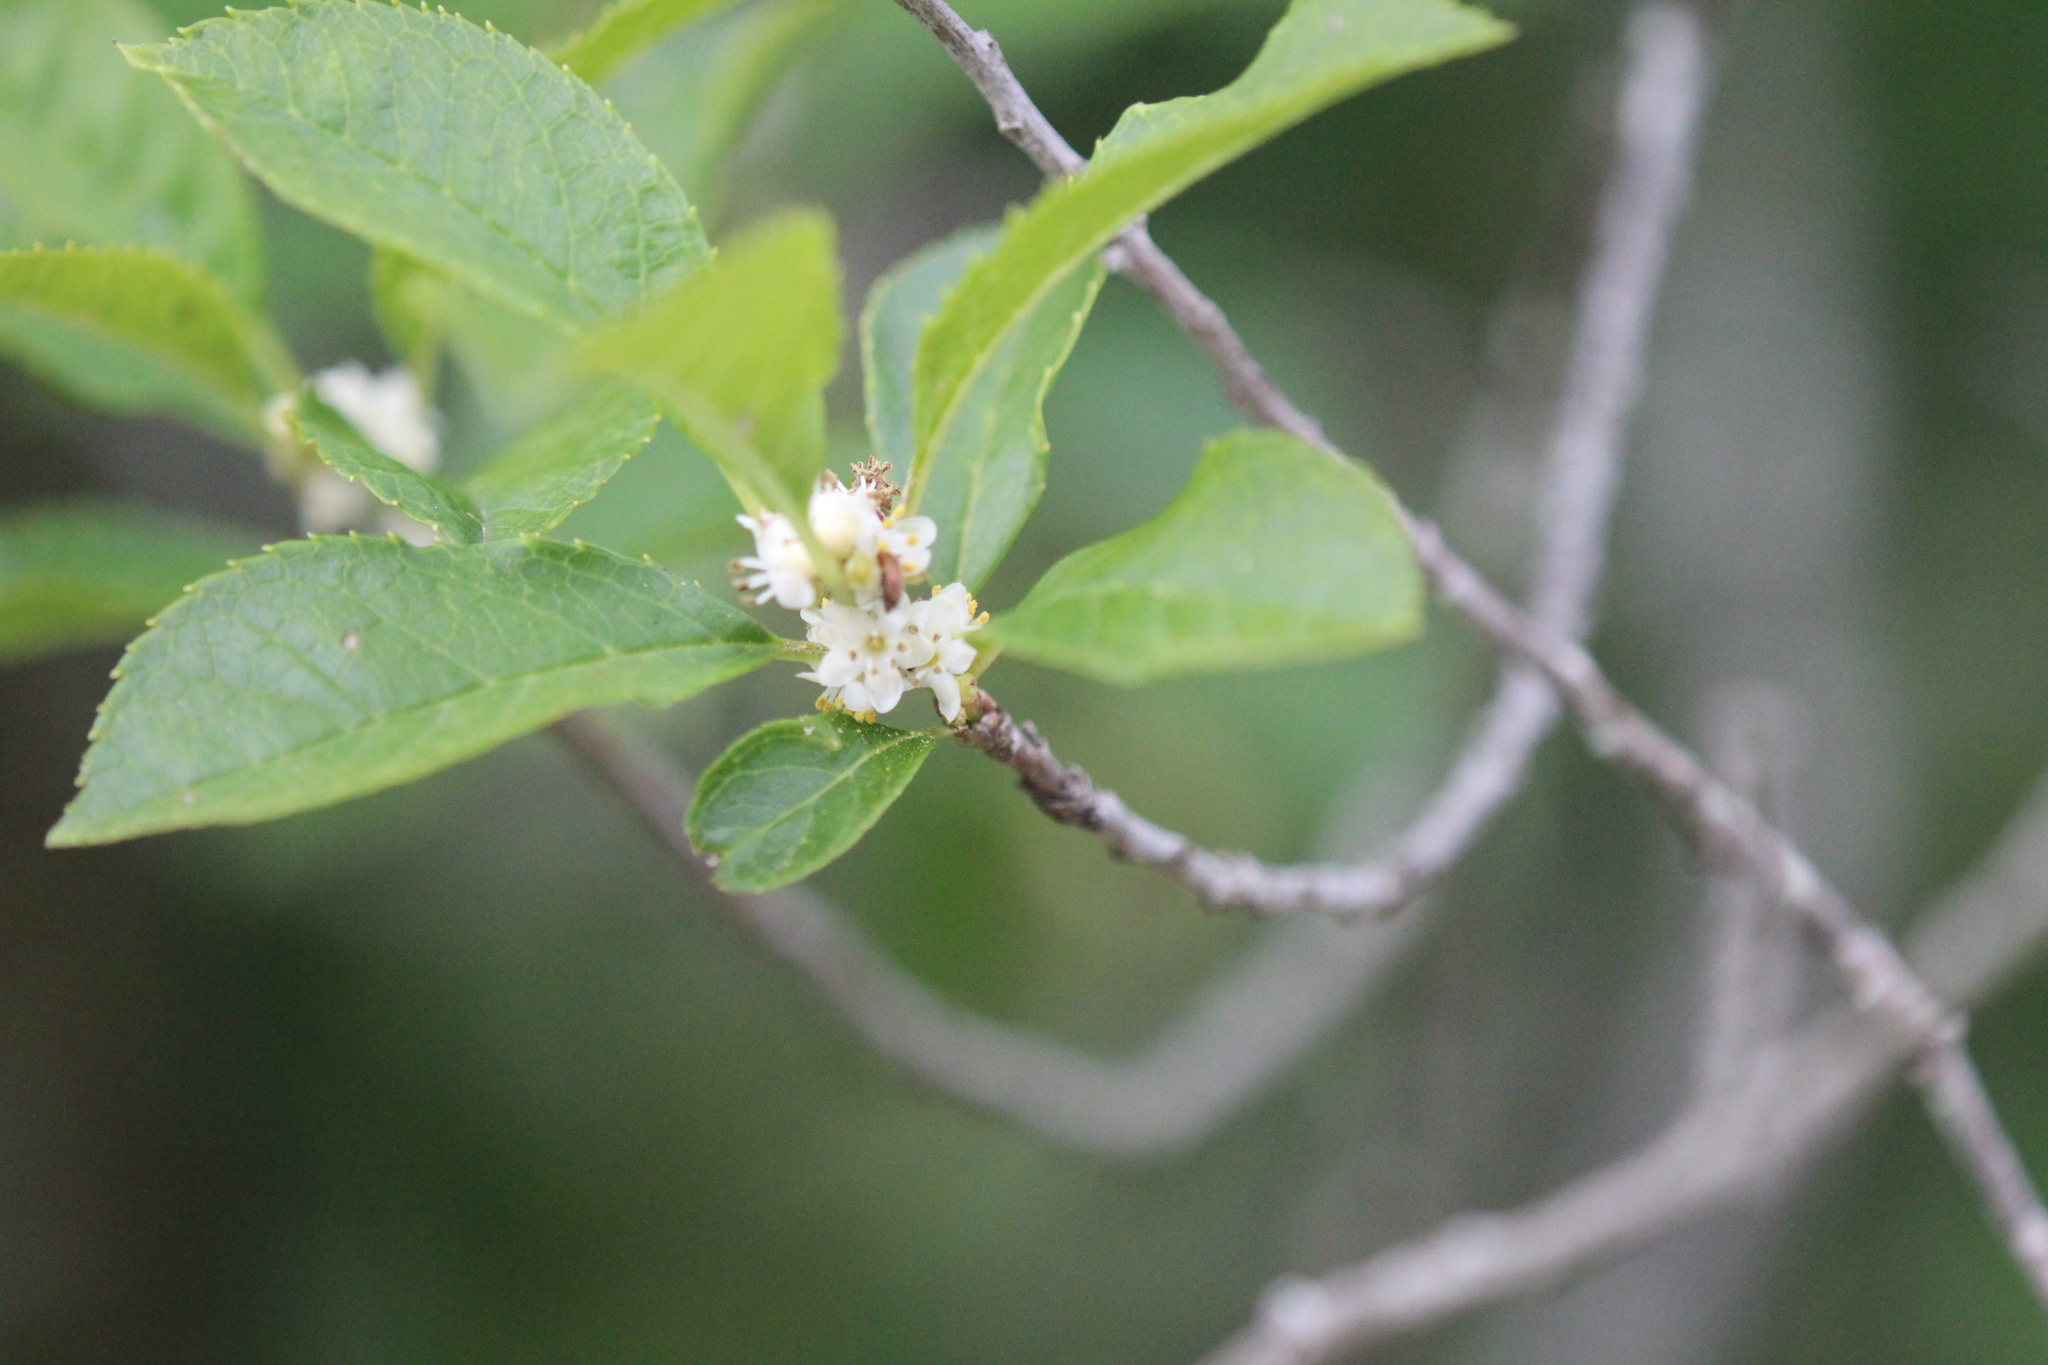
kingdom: Plantae
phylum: Tracheophyta
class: Magnoliopsida
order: Aquifoliales
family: Aquifoliaceae
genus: Ilex
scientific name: Ilex verticillata
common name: Virginia winterberry
